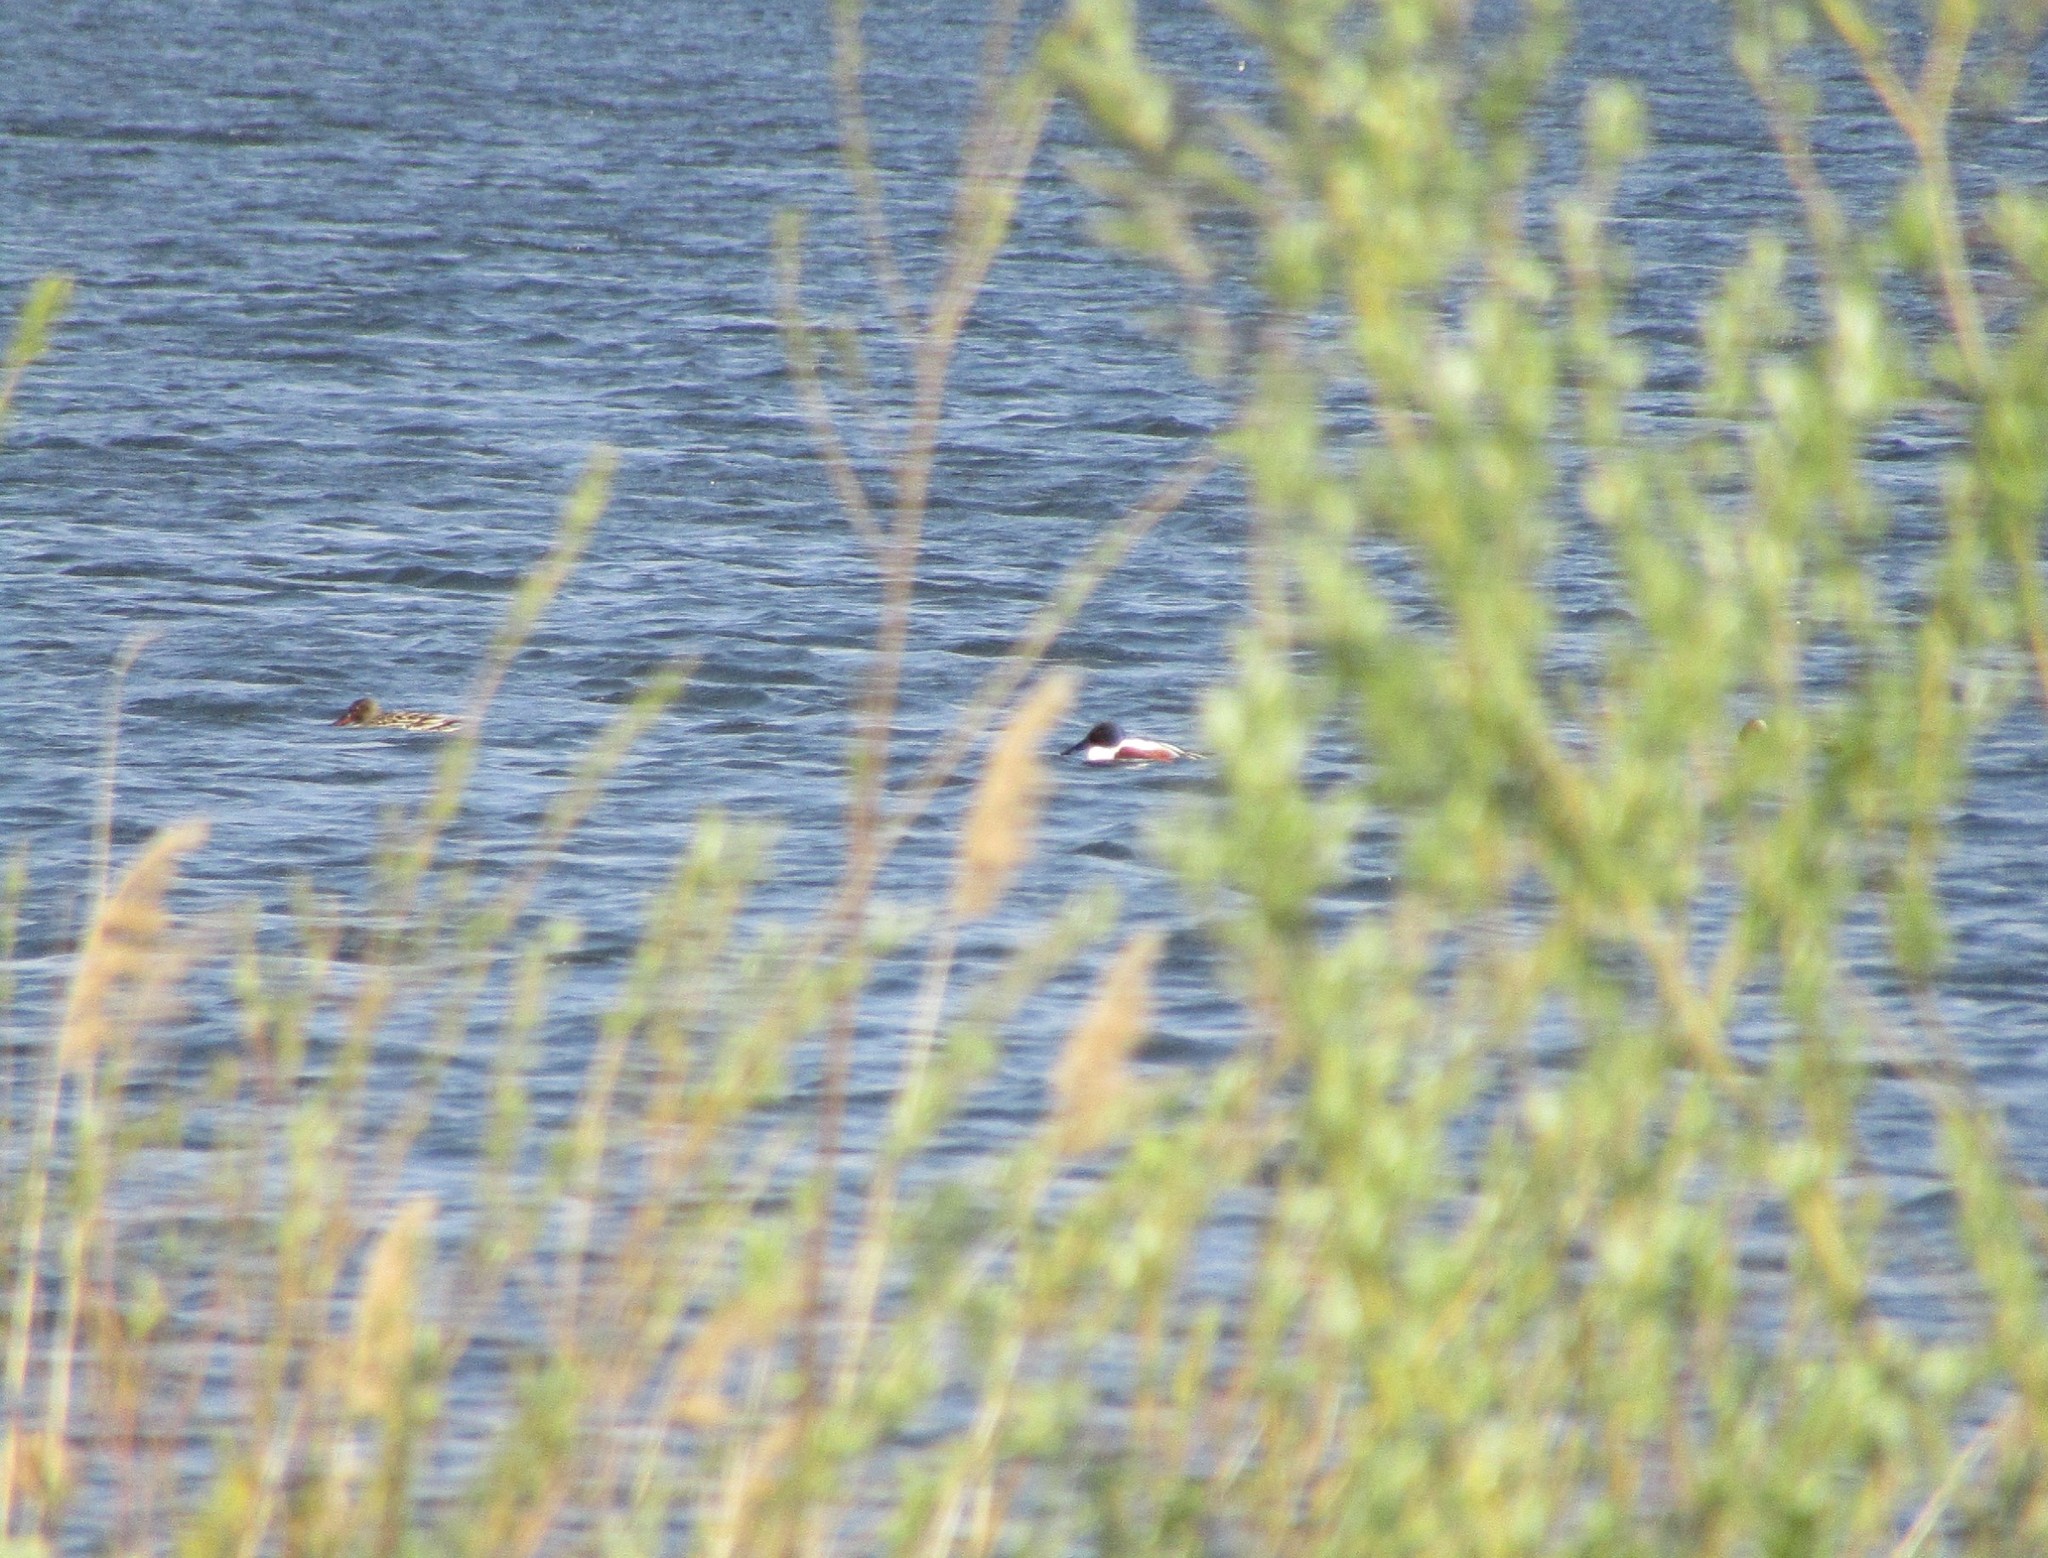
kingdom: Animalia
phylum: Chordata
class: Aves
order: Anseriformes
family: Anatidae
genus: Spatula
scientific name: Spatula clypeata
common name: Northern shoveler
